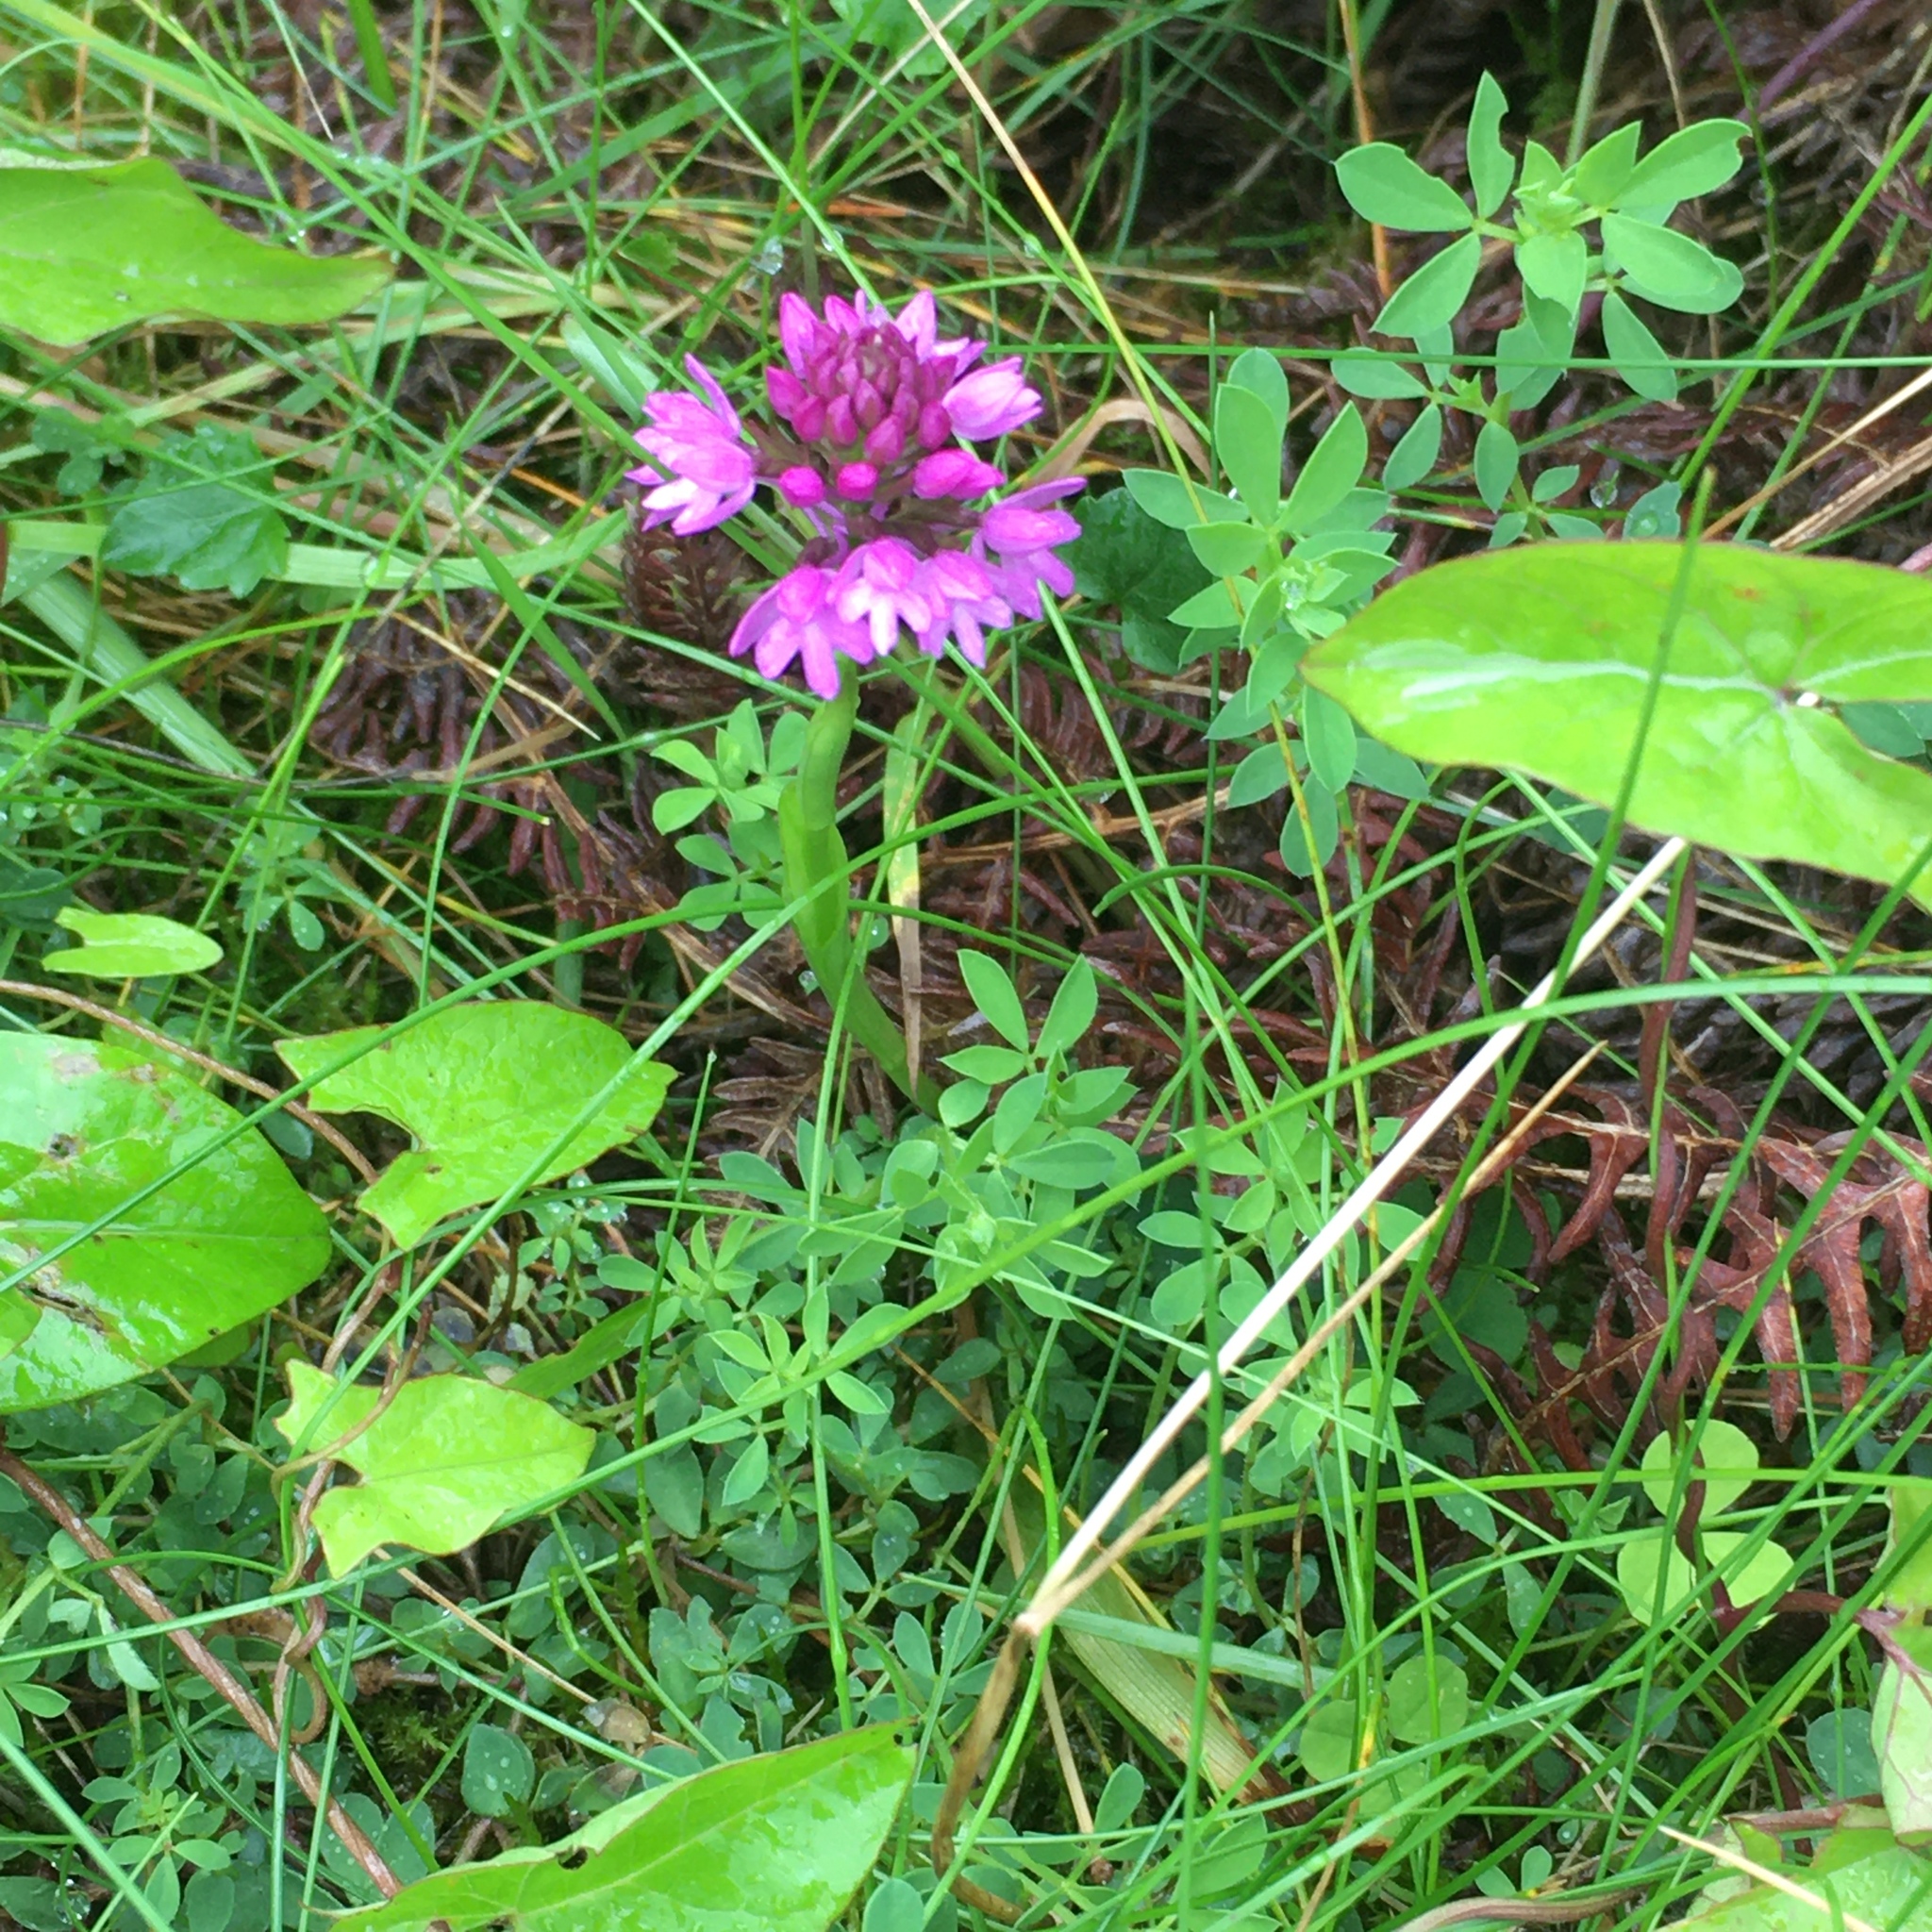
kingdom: Plantae
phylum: Tracheophyta
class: Liliopsida
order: Asparagales
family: Orchidaceae
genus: Anacamptis
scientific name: Anacamptis pyramidalis
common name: Pyramidal orchid
